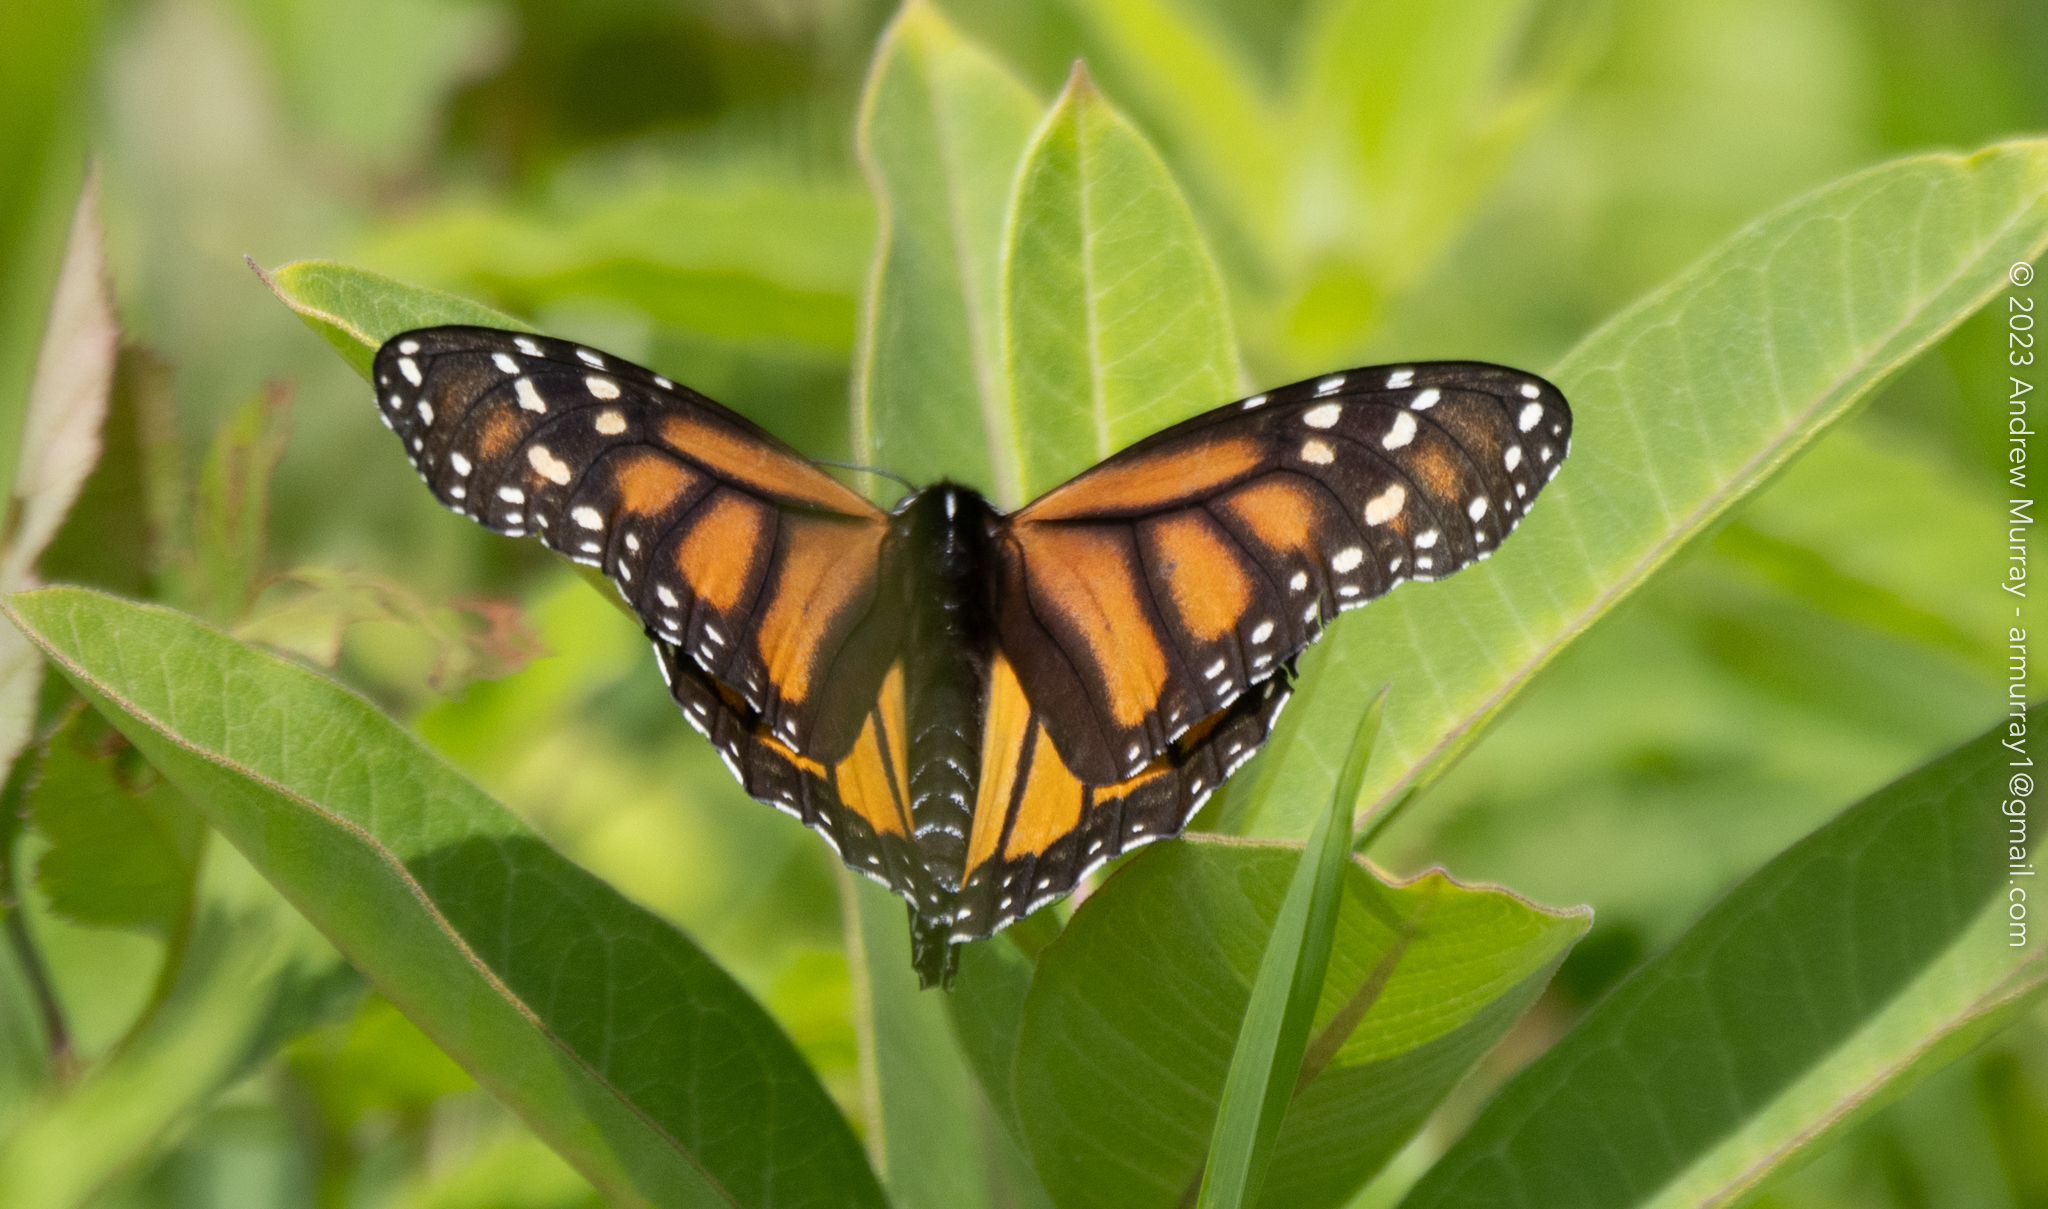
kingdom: Animalia
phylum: Arthropoda
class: Insecta
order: Lepidoptera
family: Nymphalidae
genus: Danaus
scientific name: Danaus plexippus
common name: Monarch
